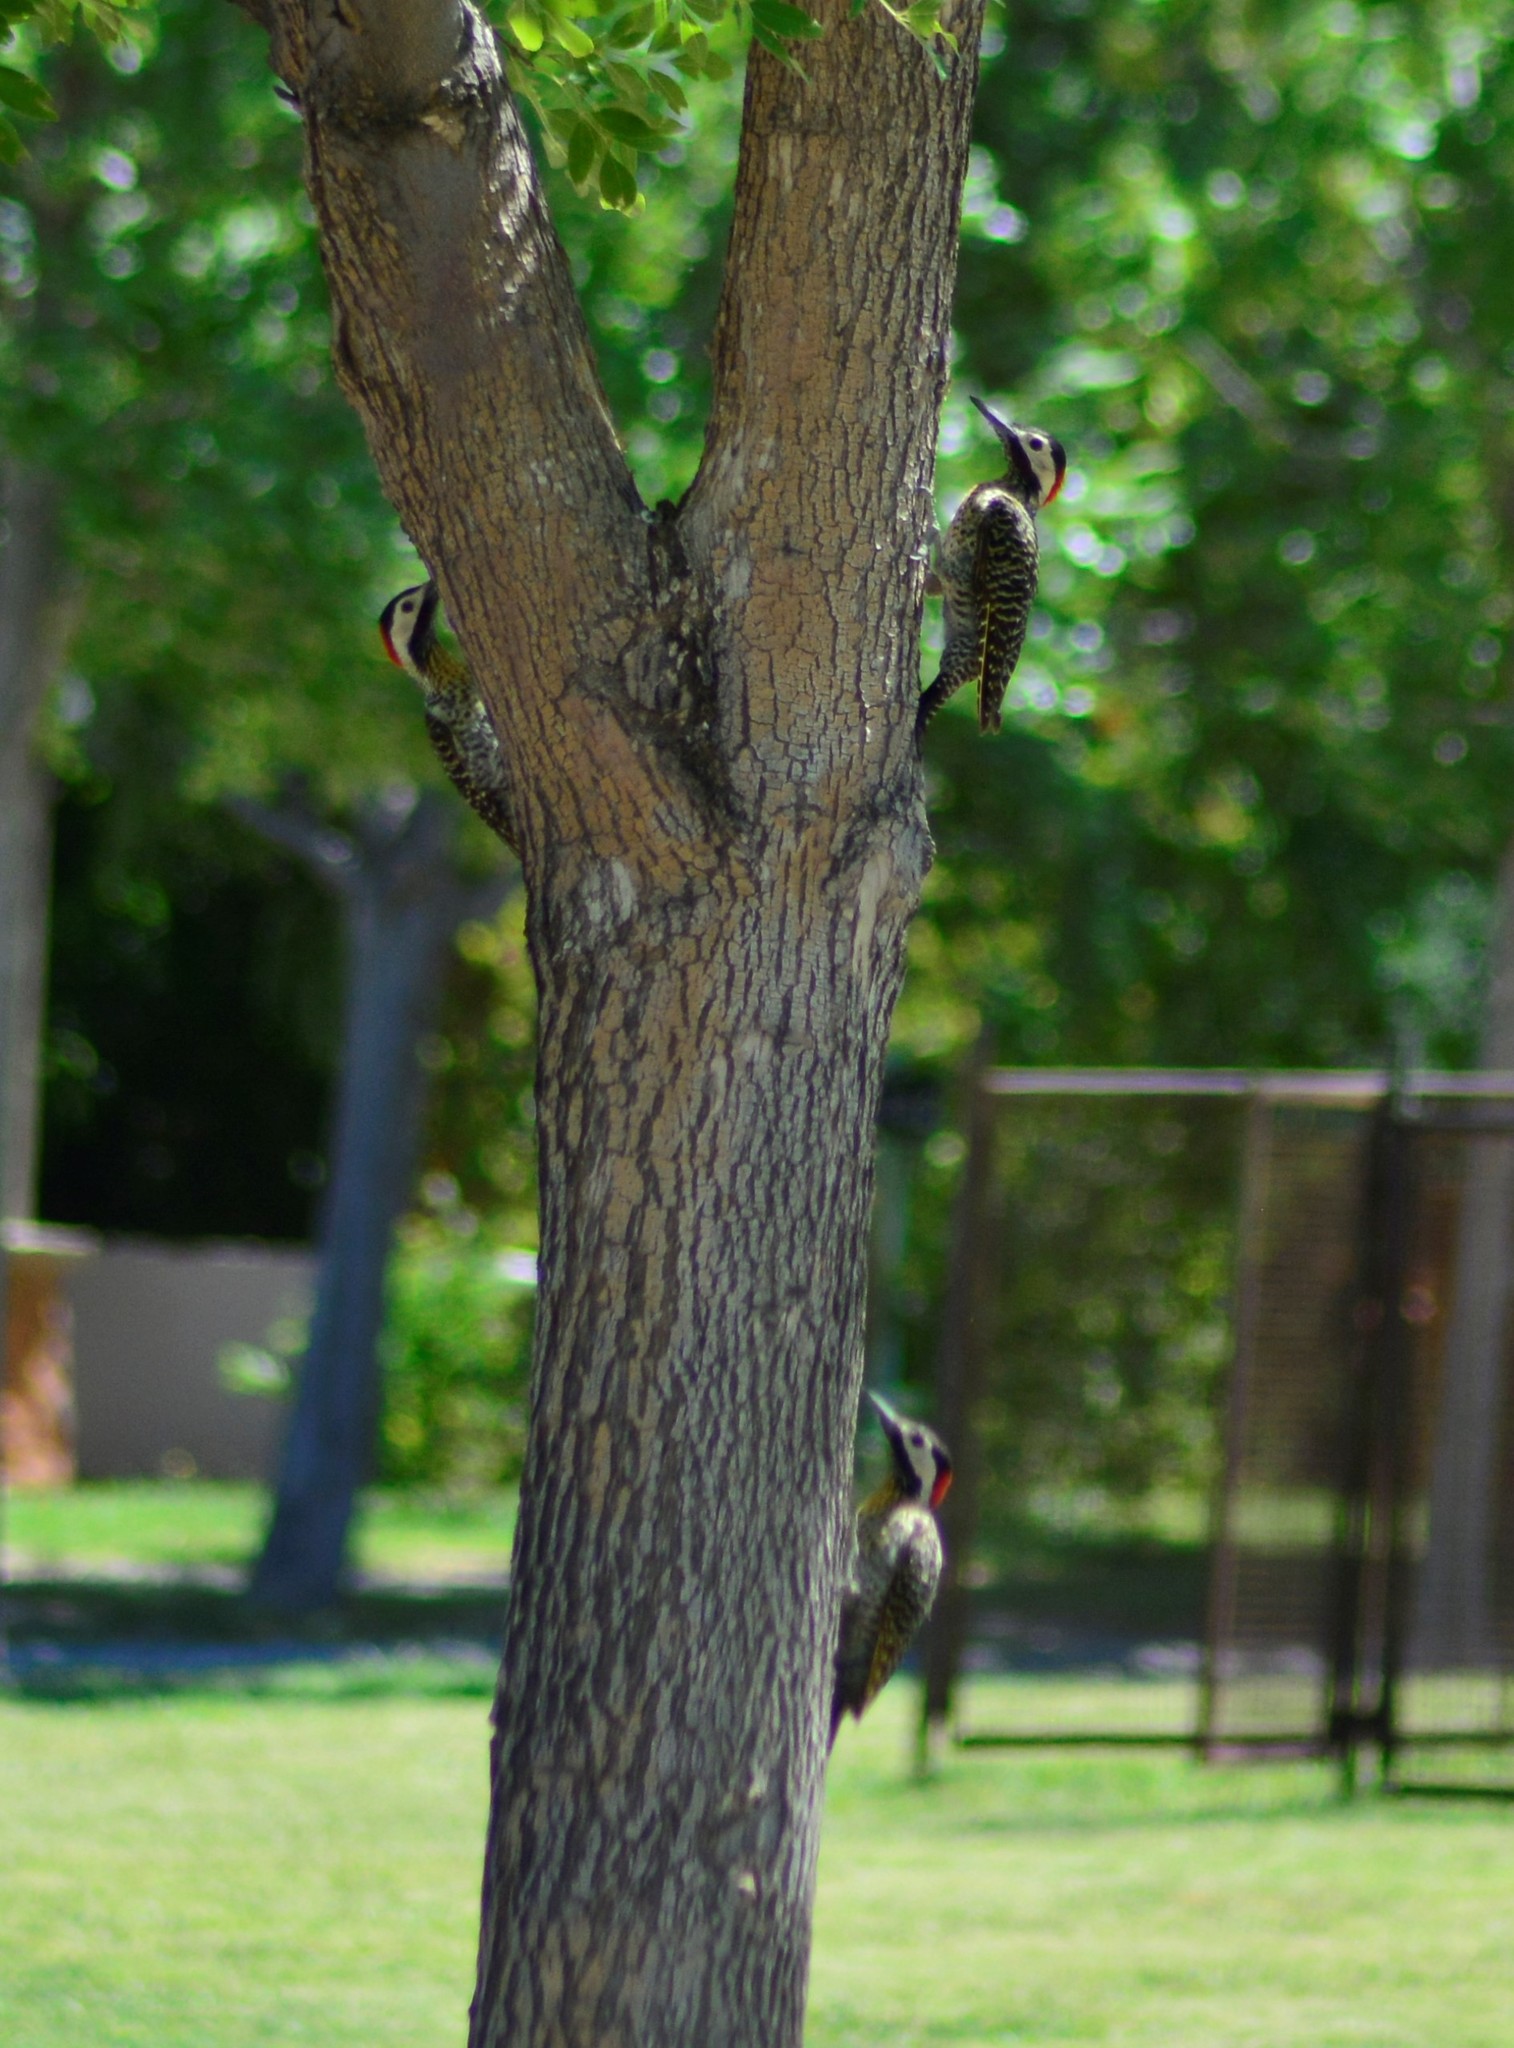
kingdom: Animalia
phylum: Chordata
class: Aves
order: Piciformes
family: Picidae
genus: Colaptes
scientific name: Colaptes melanochloros
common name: Green-barred woodpecker
